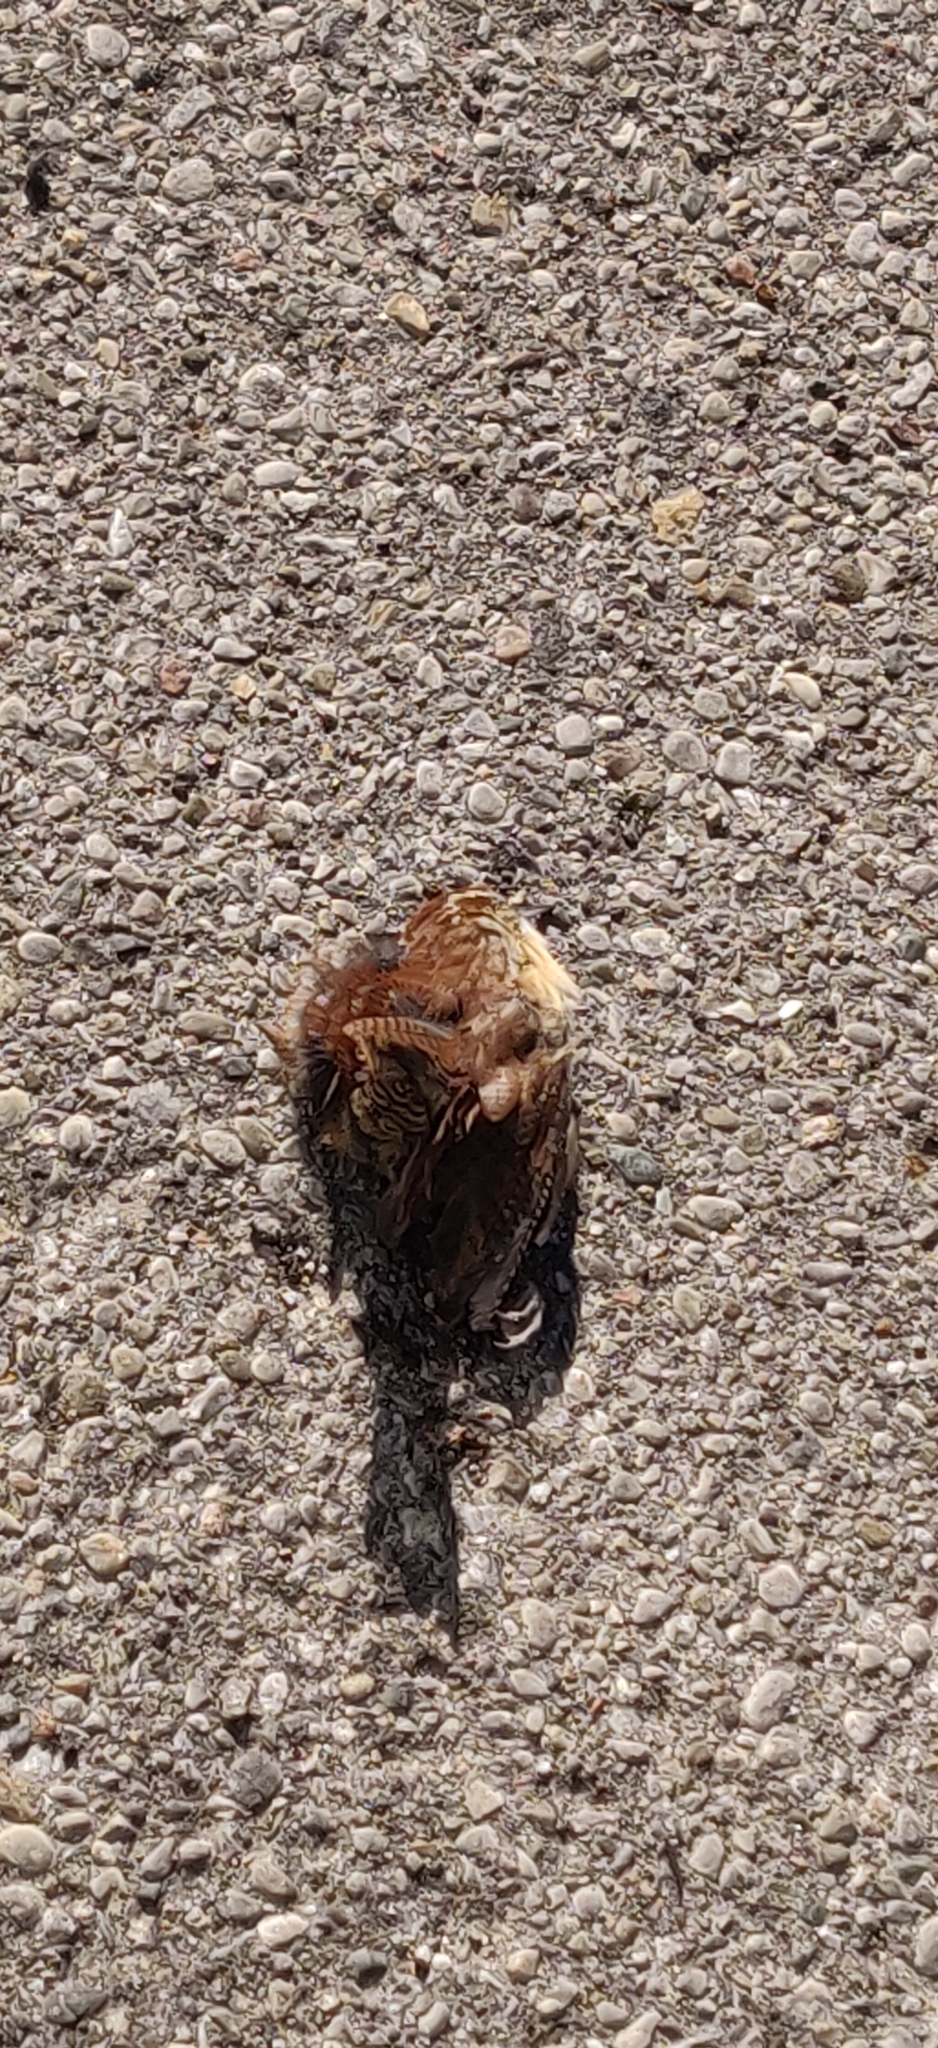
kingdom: Animalia
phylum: Chordata
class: Aves
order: Passeriformes
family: Troglodytidae
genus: Thryothorus
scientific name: Thryothorus ludovicianus
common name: Carolina wren
